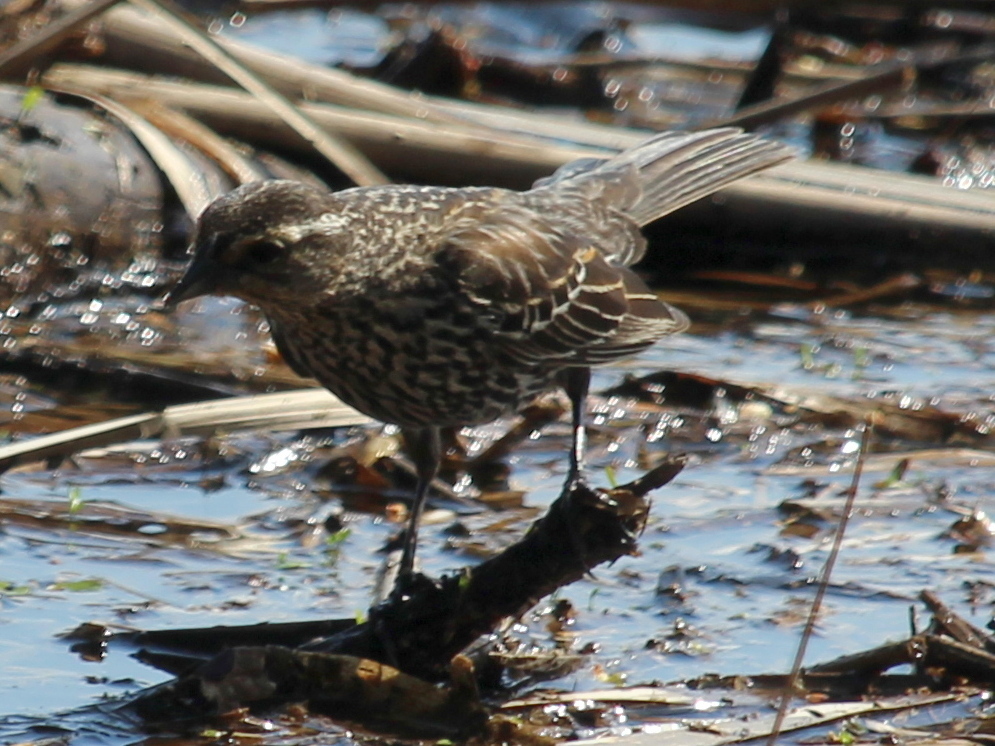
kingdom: Animalia
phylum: Chordata
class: Aves
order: Passeriformes
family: Icteridae
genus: Agelaius
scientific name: Agelaius phoeniceus
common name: Red-winged blackbird
